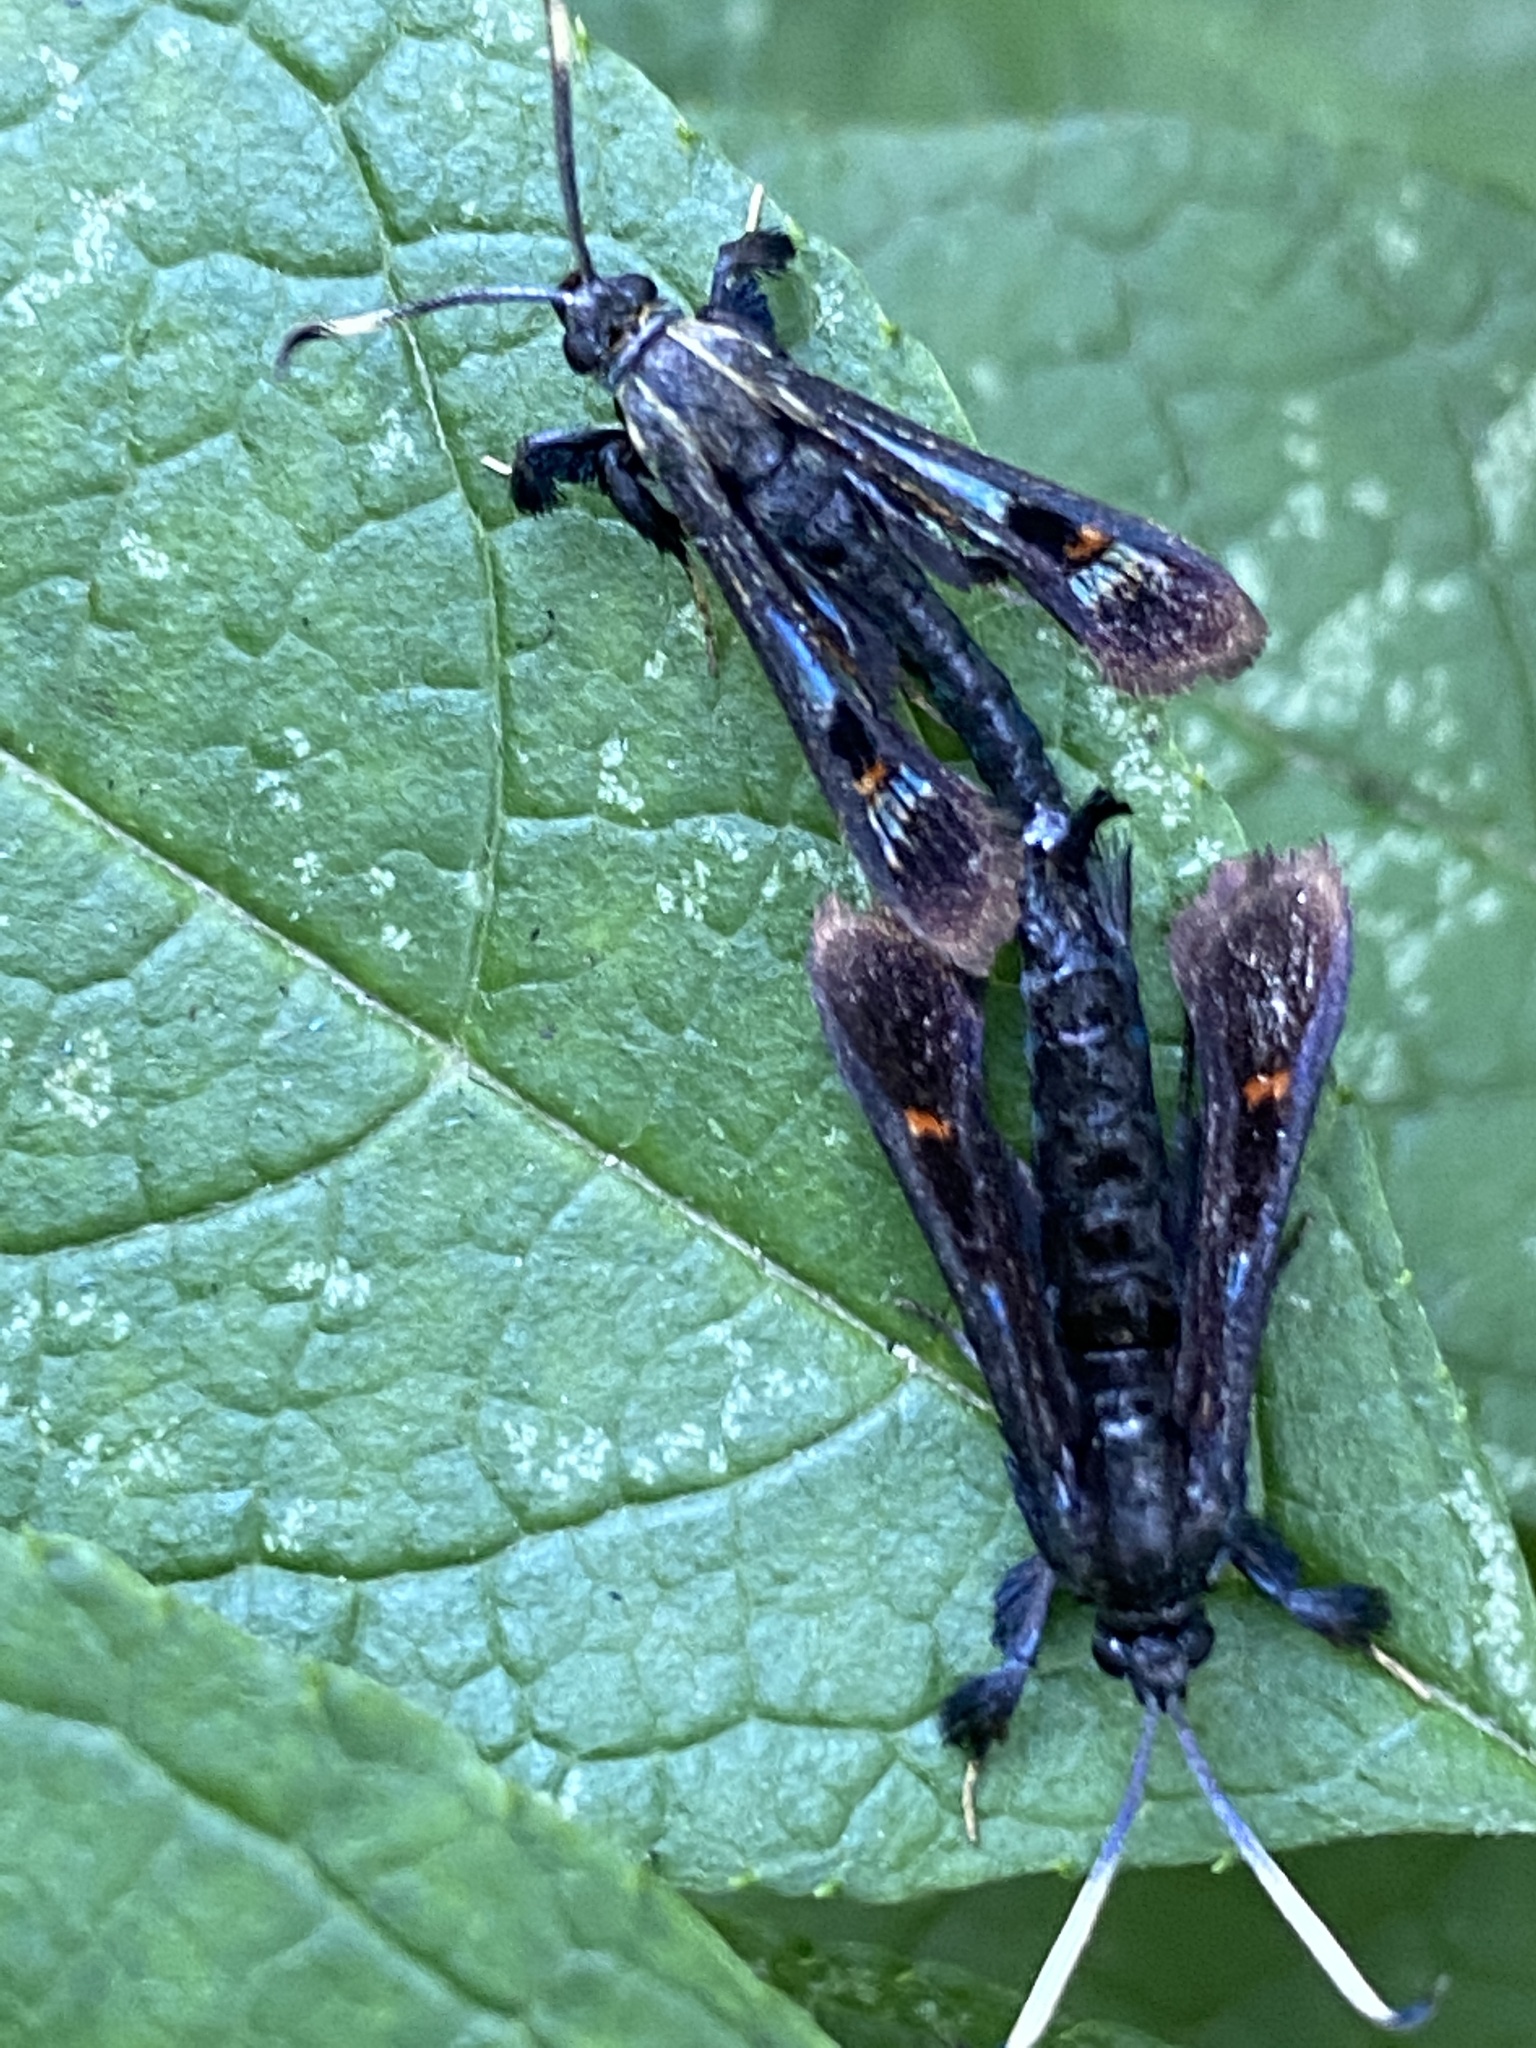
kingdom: Animalia
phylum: Arthropoda
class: Insecta
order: Lepidoptera
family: Sesiidae
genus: Albuna
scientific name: Albuna fraxini
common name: Virginia creeper clearwing
